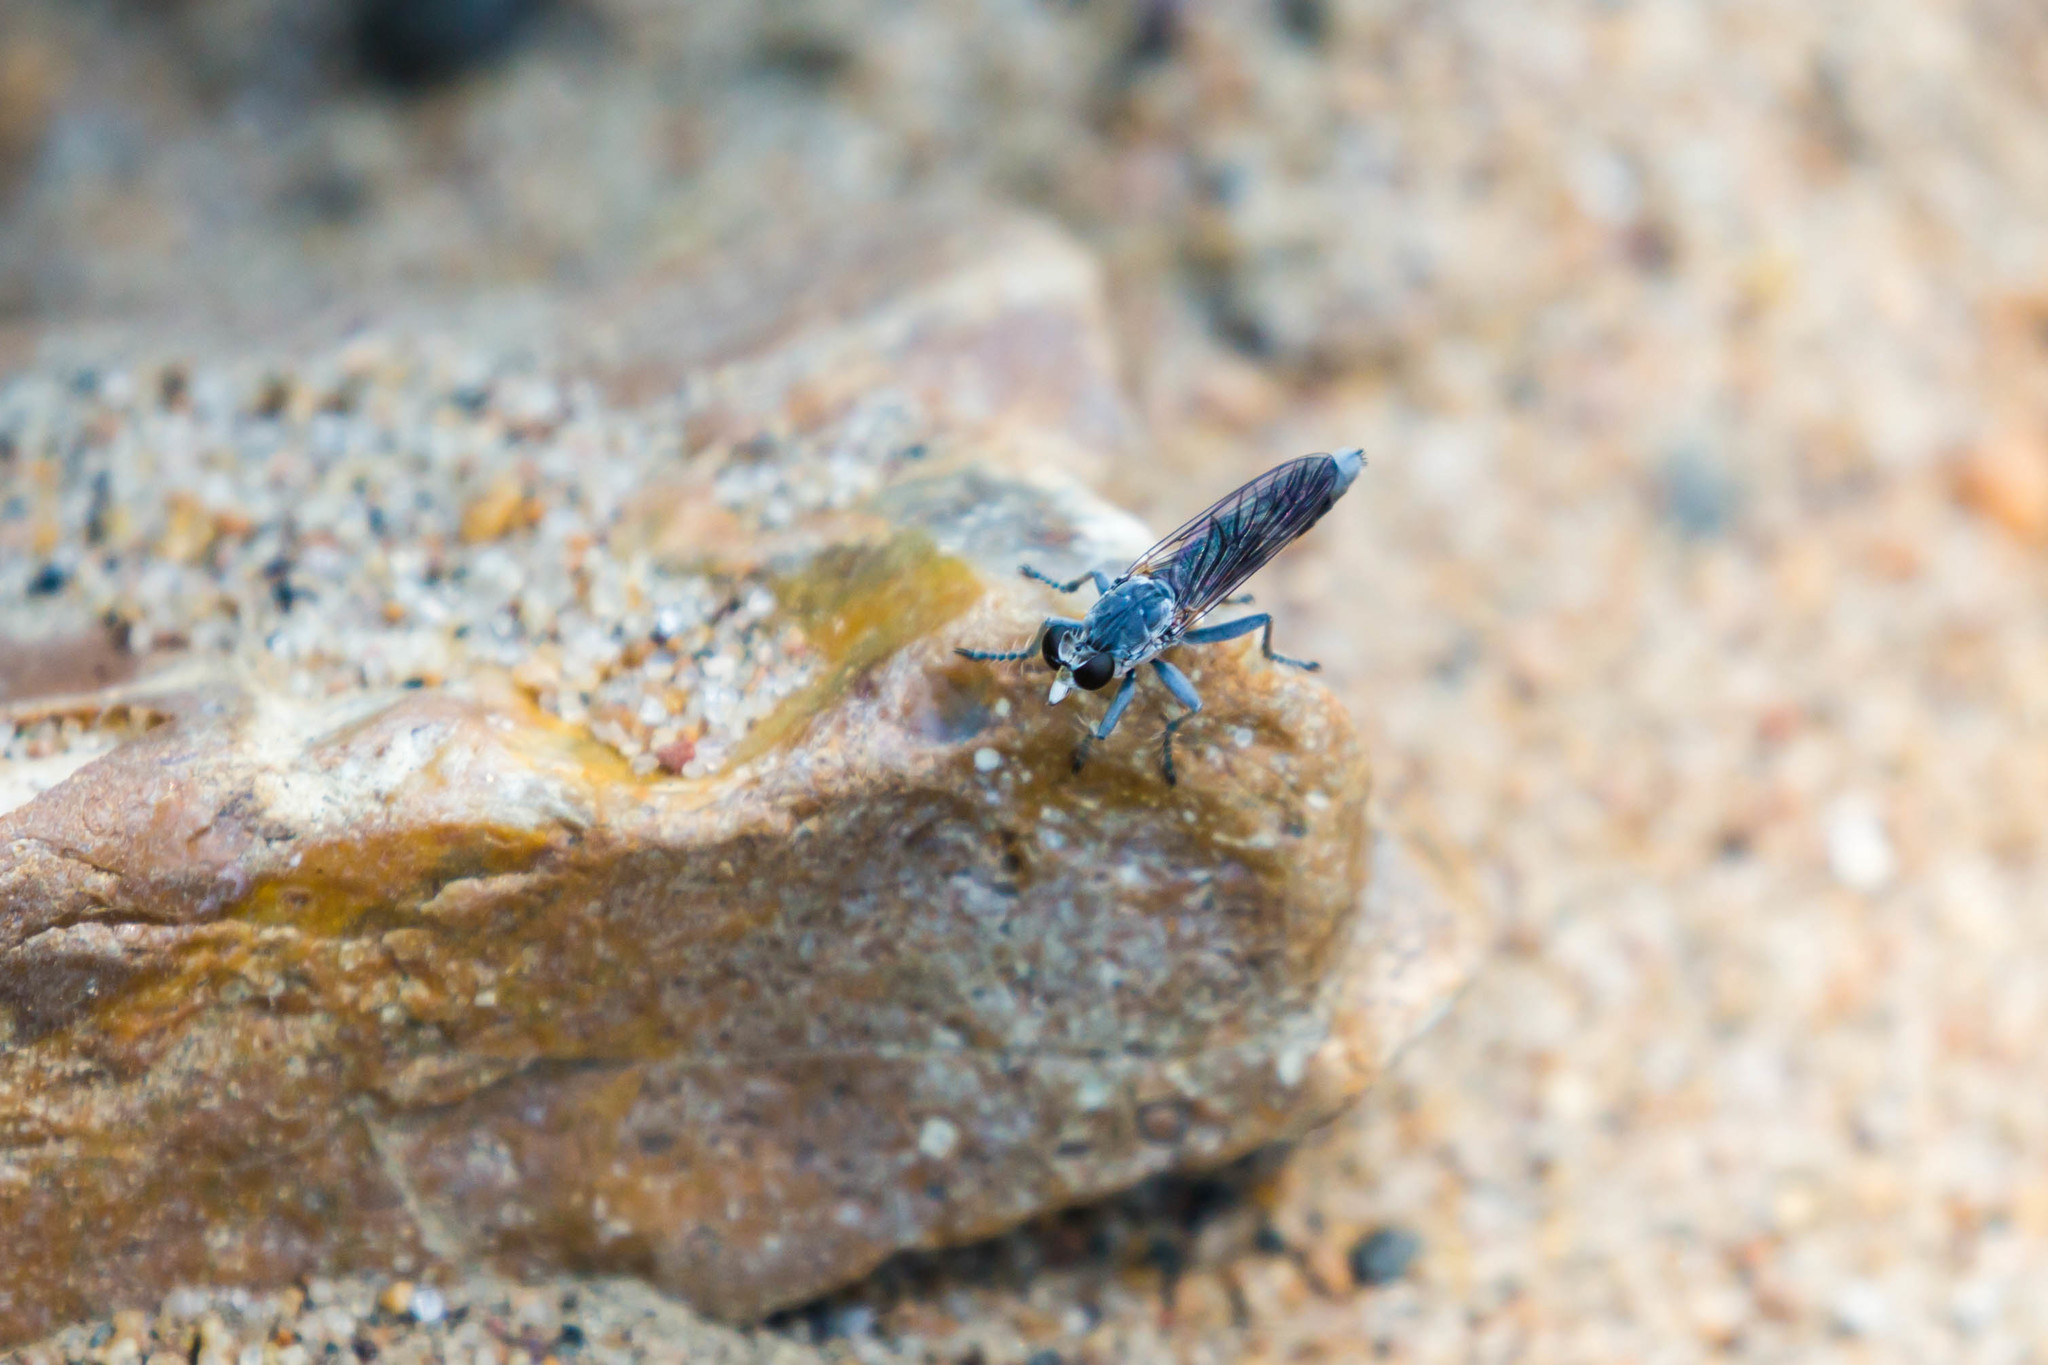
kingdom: Animalia
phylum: Arthropoda
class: Insecta
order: Diptera
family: Asilidae
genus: Stichopogon
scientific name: Stichopogon trifasciatus
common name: Three-banded robber fly
